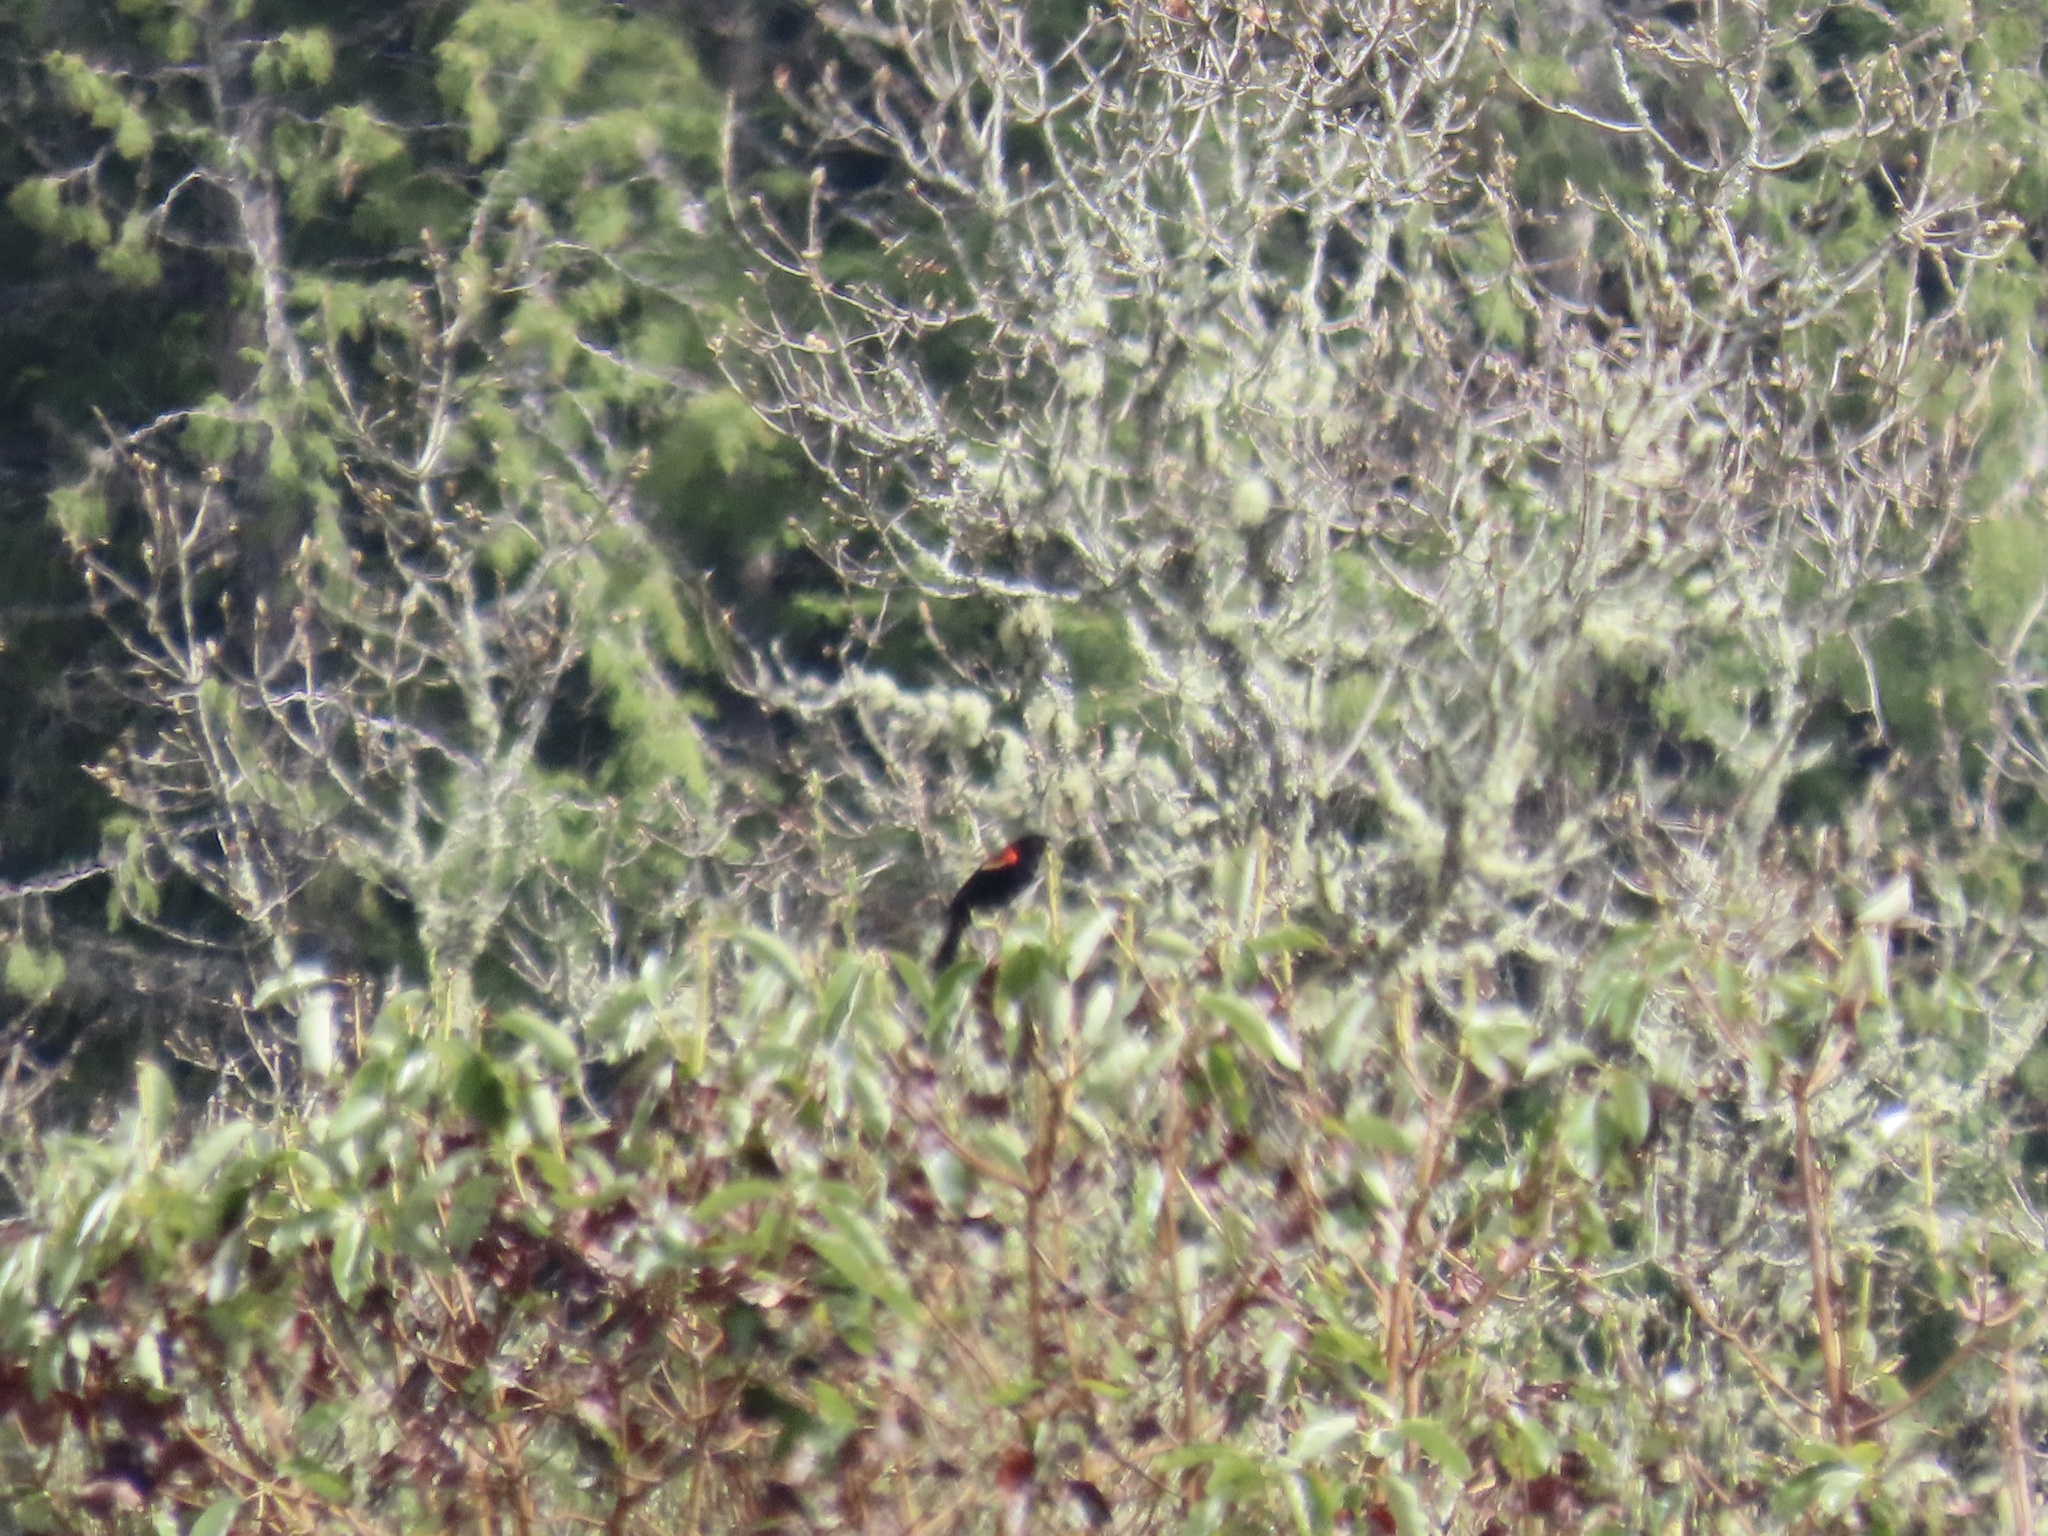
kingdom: Animalia
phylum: Chordata
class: Aves
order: Passeriformes
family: Icteridae
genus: Agelaius
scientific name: Agelaius phoeniceus
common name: Red-winged blackbird
